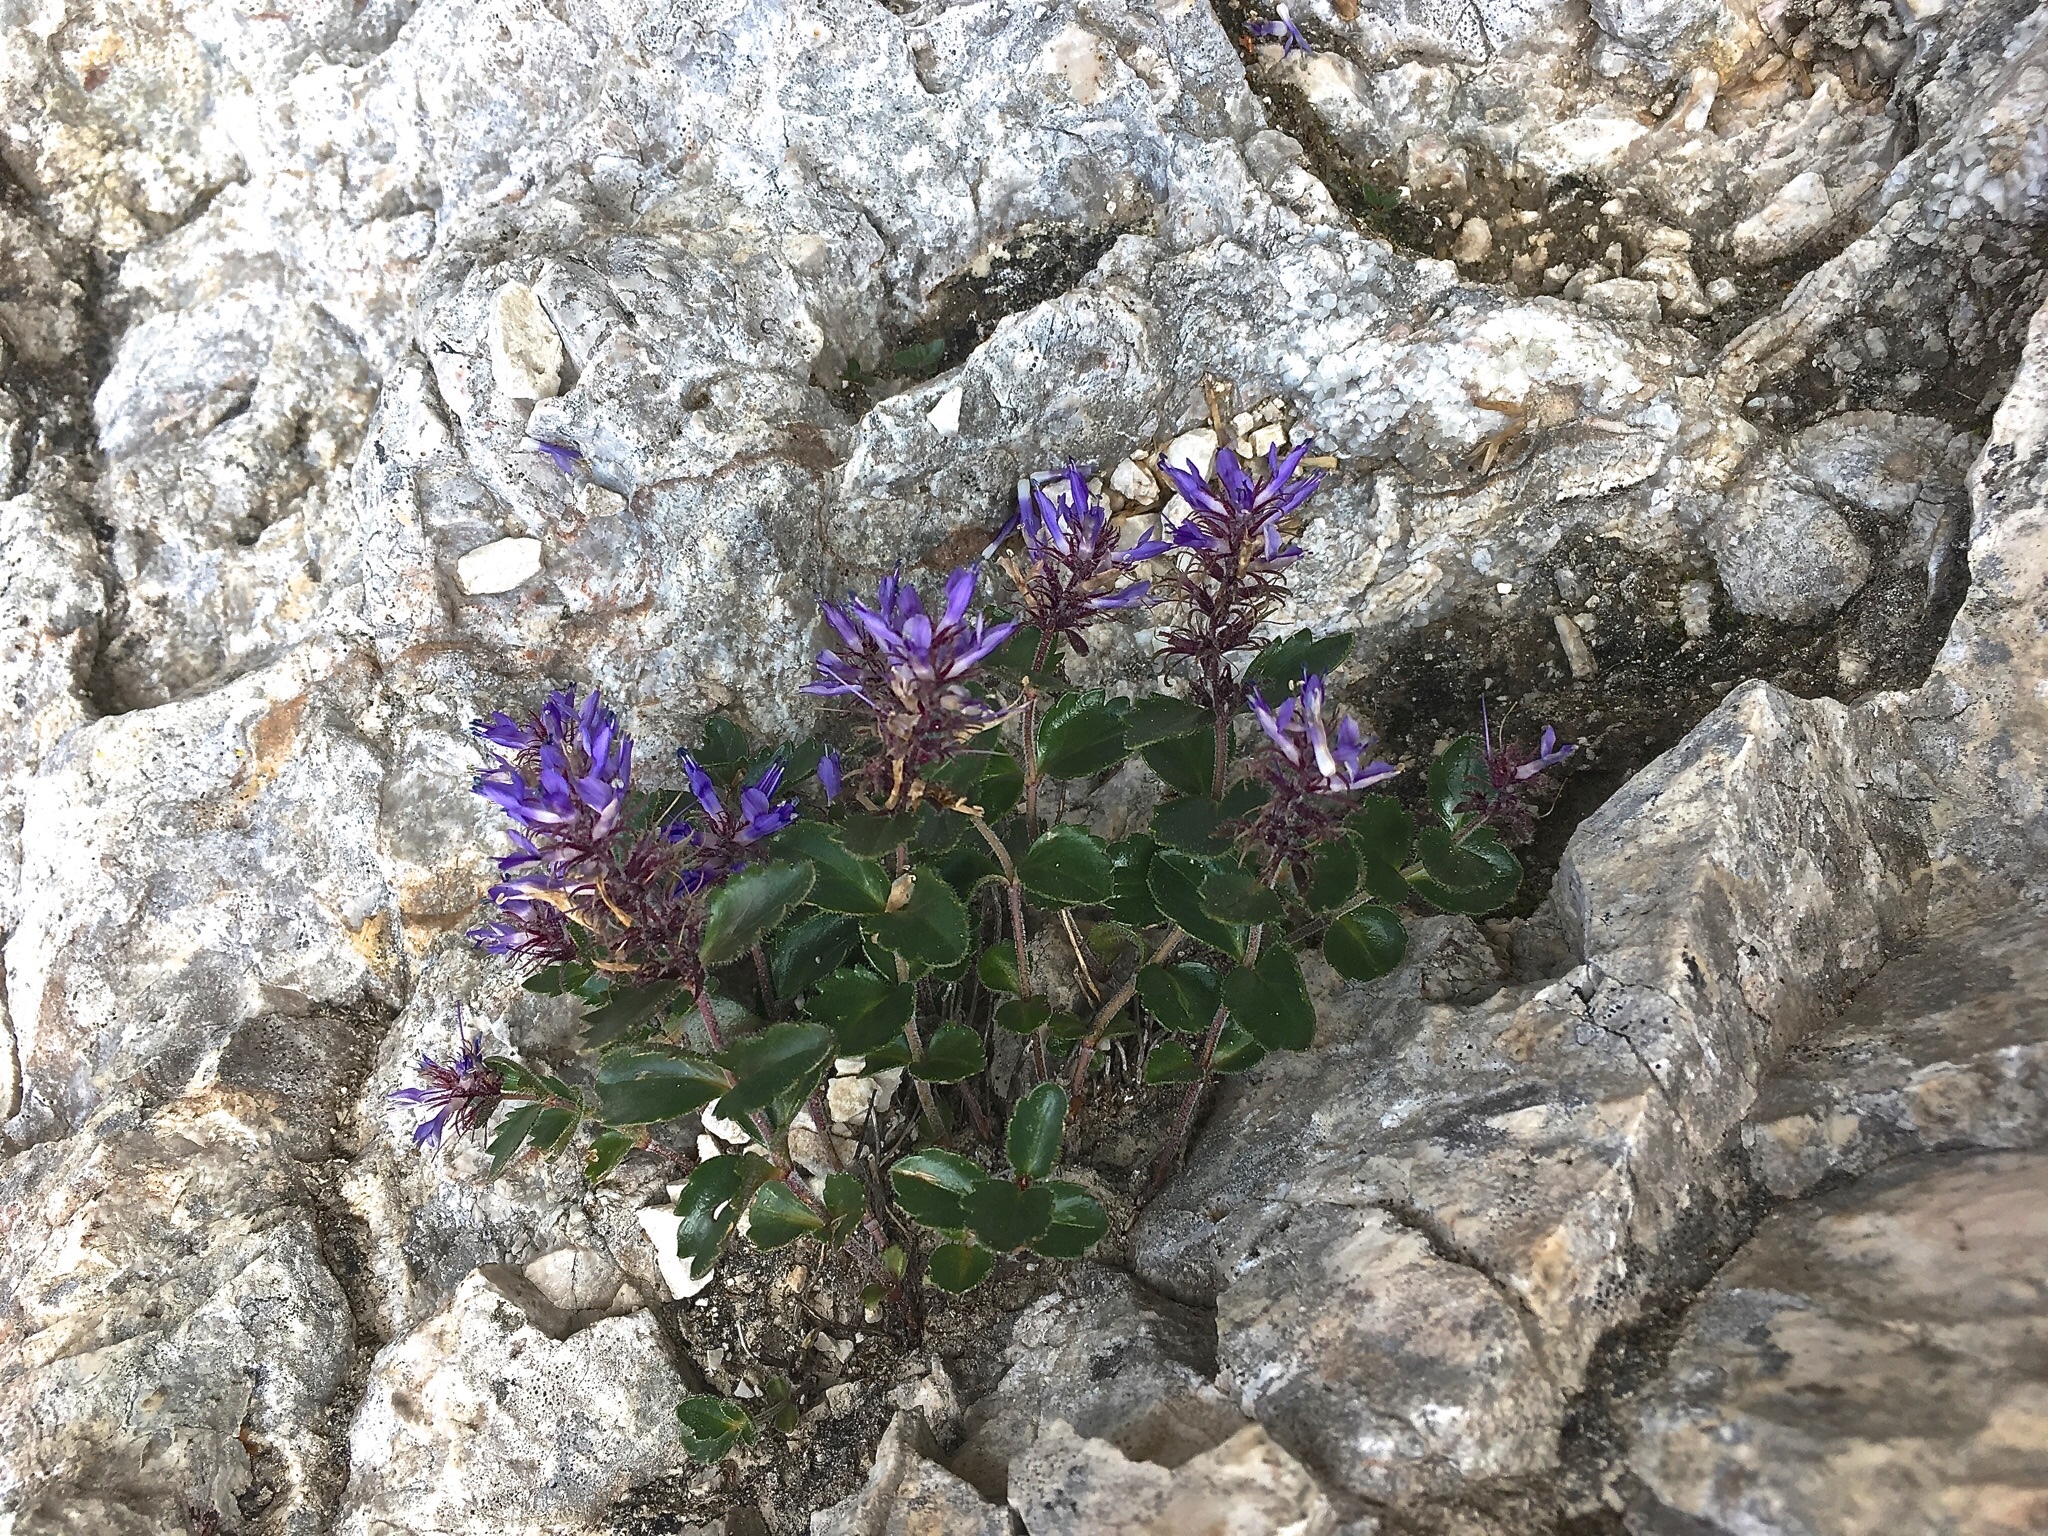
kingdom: Plantae
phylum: Tracheophyta
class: Magnoliopsida
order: Lamiales
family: Plantaginaceae
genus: Paederota
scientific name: Paederota bonarota
